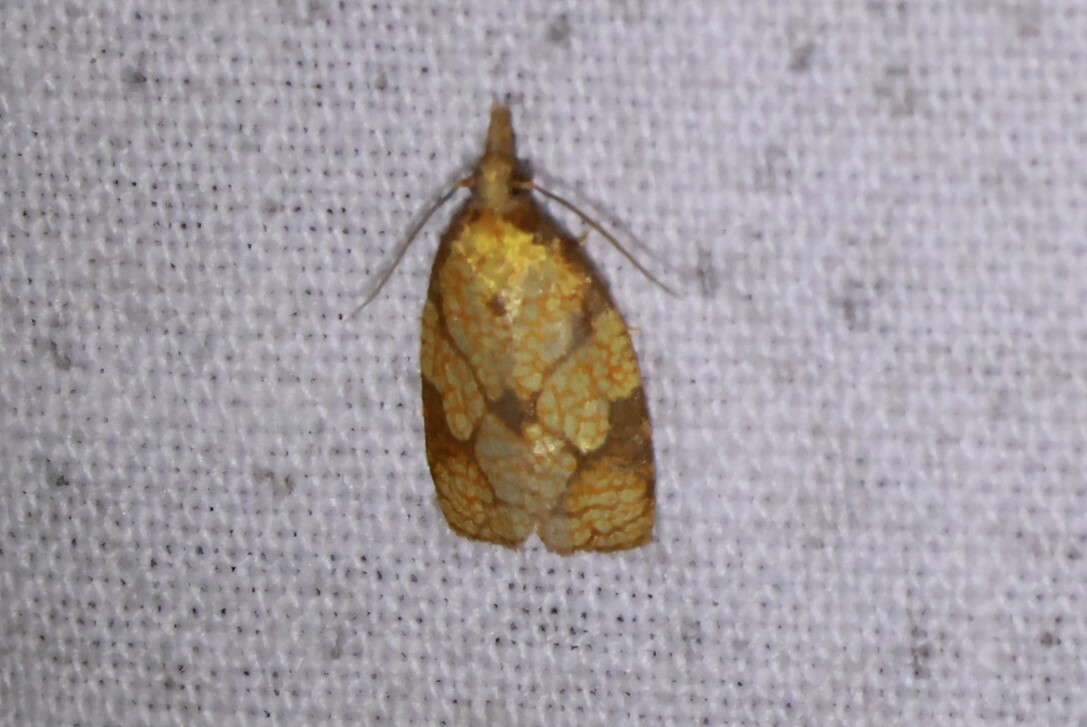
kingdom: Animalia
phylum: Arthropoda
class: Insecta
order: Lepidoptera
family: Tortricidae
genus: Cenopis
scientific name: Cenopis reticulatana
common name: Reticulated fruitworm moth
